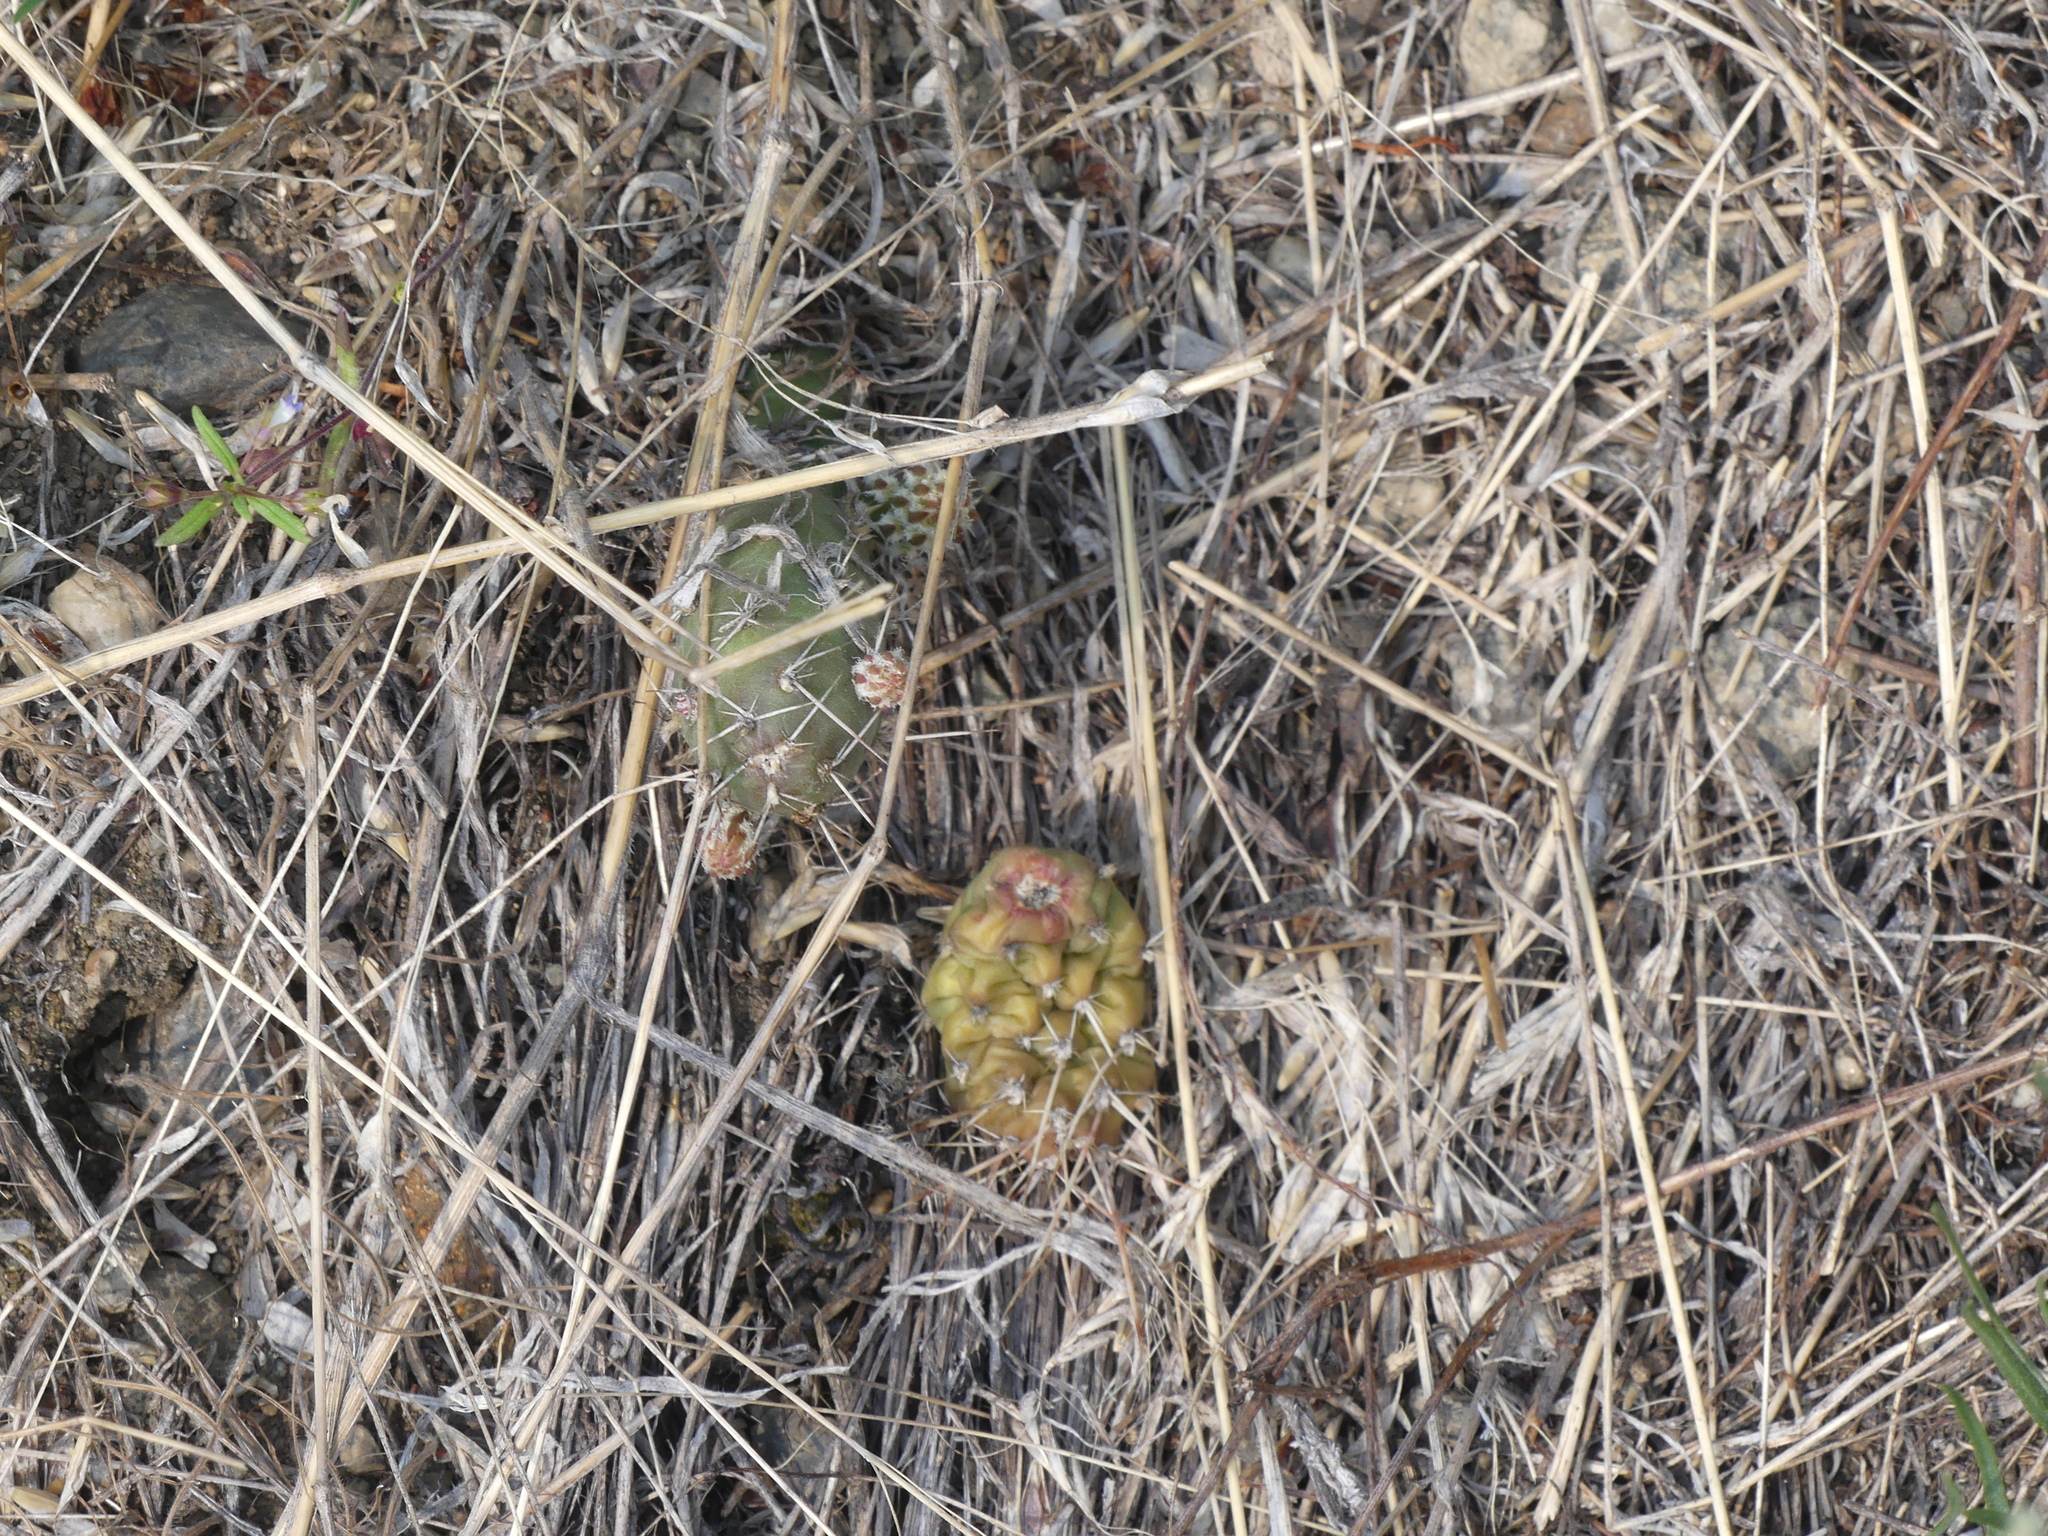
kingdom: Plantae
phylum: Tracheophyta
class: Magnoliopsida
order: Caryophyllales
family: Cactaceae
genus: Opuntia
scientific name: Opuntia fragilis
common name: Brittle cactus
